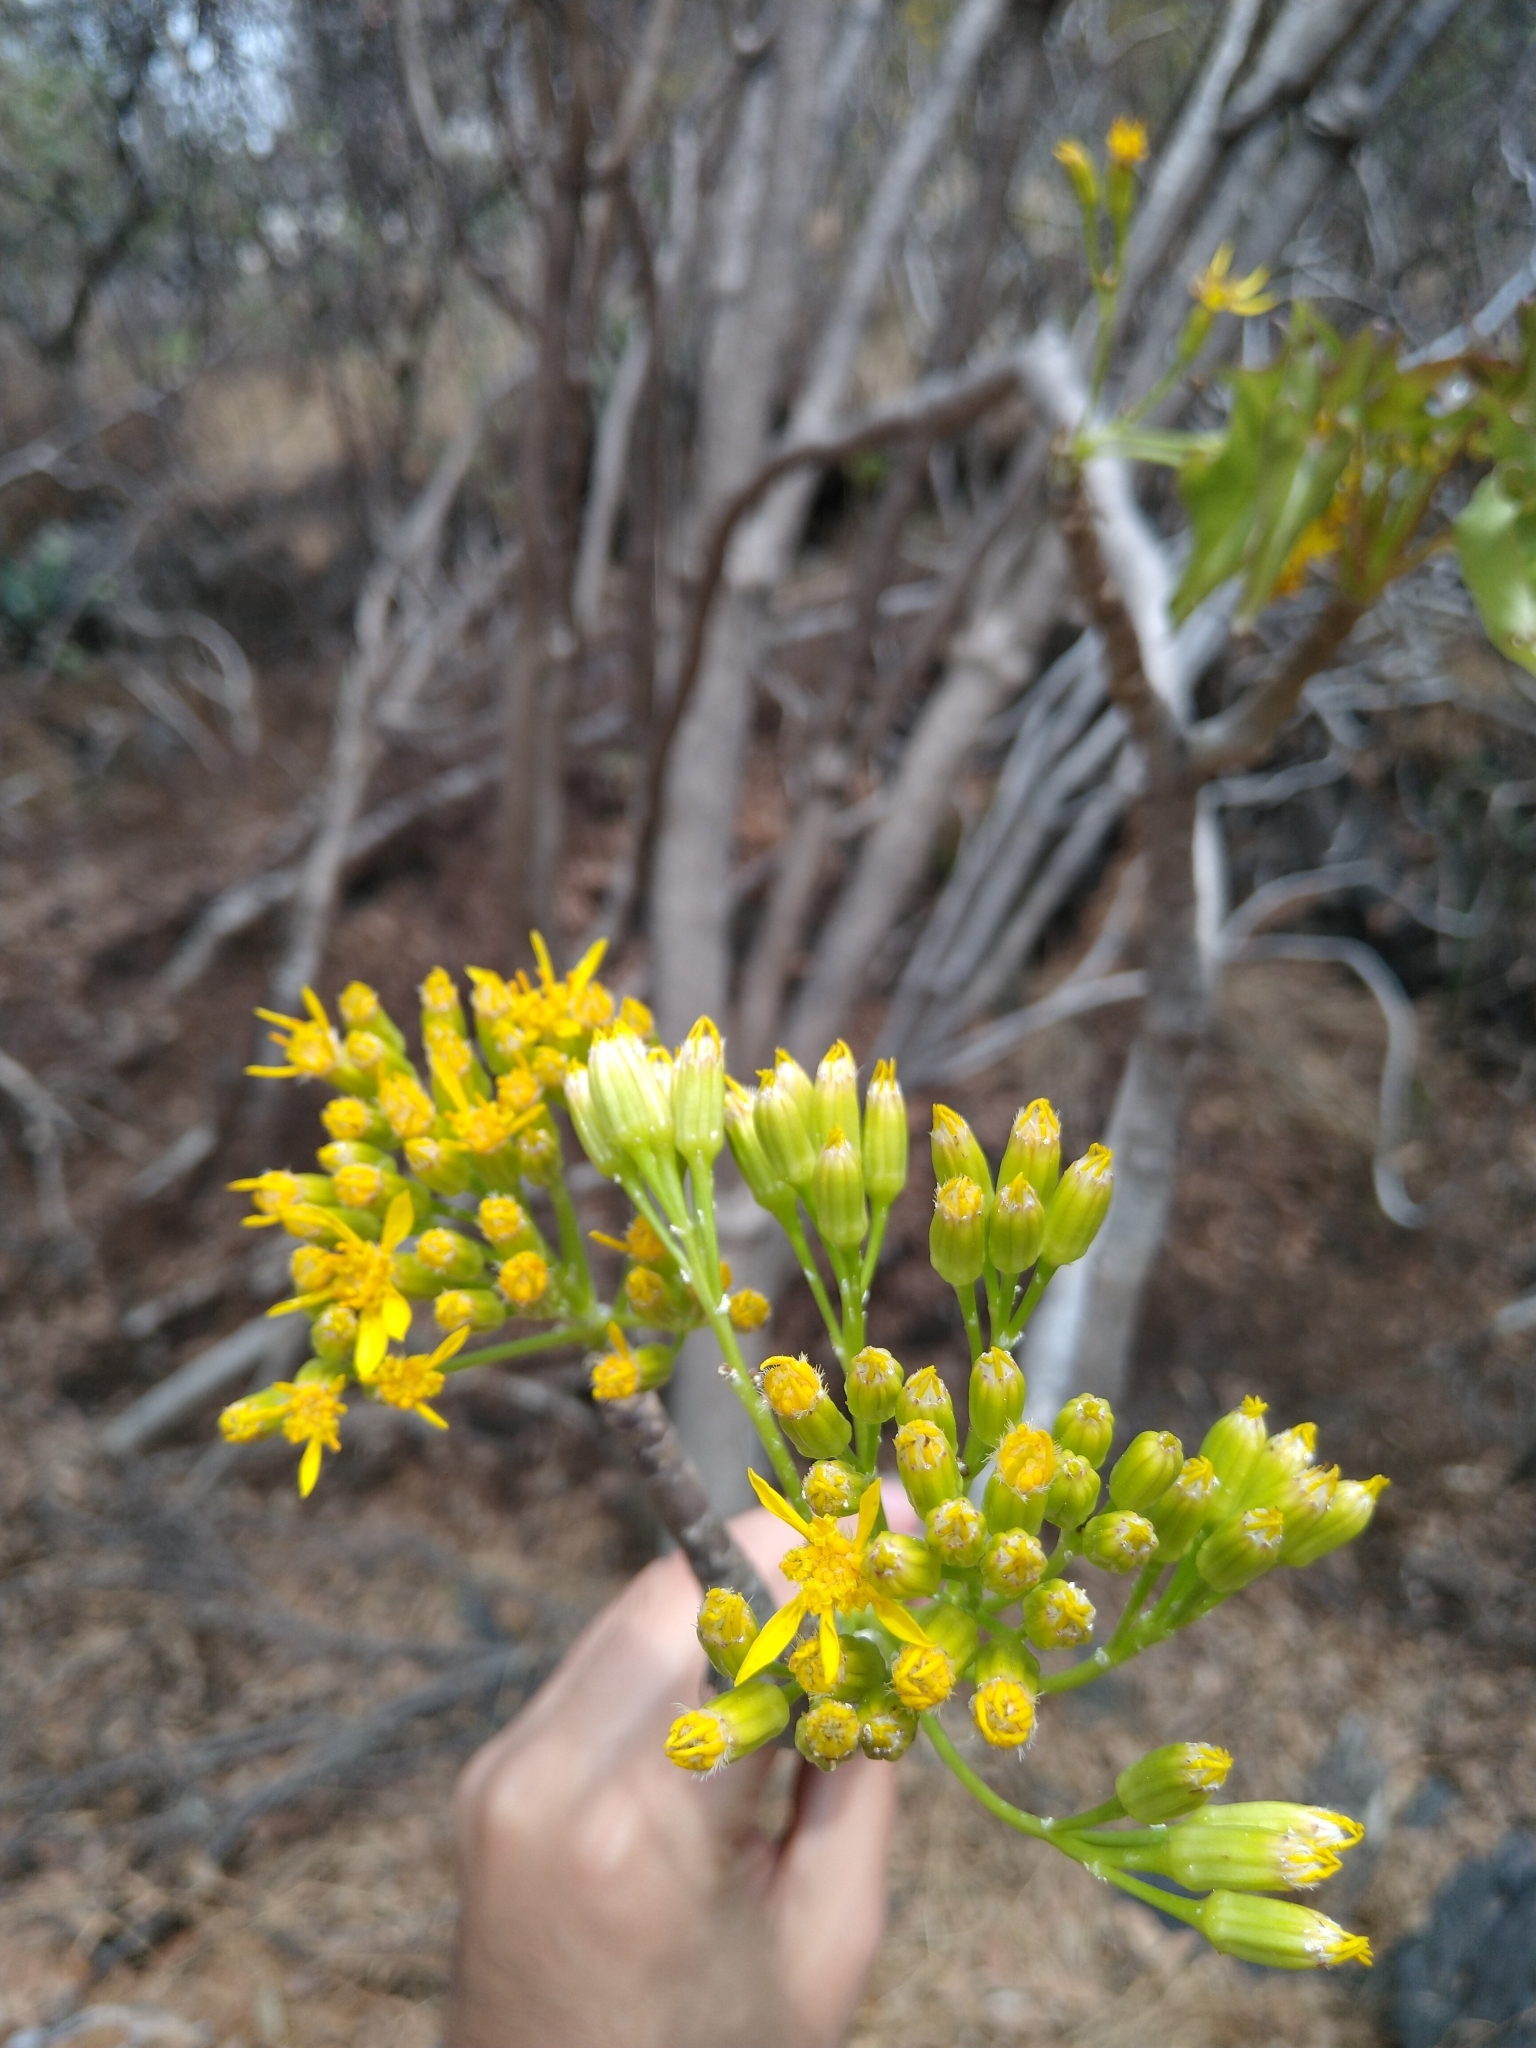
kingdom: Plantae
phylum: Tracheophyta
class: Magnoliopsida
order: Asterales
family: Asteraceae
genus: Pittocaulon
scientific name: Pittocaulon praecox
